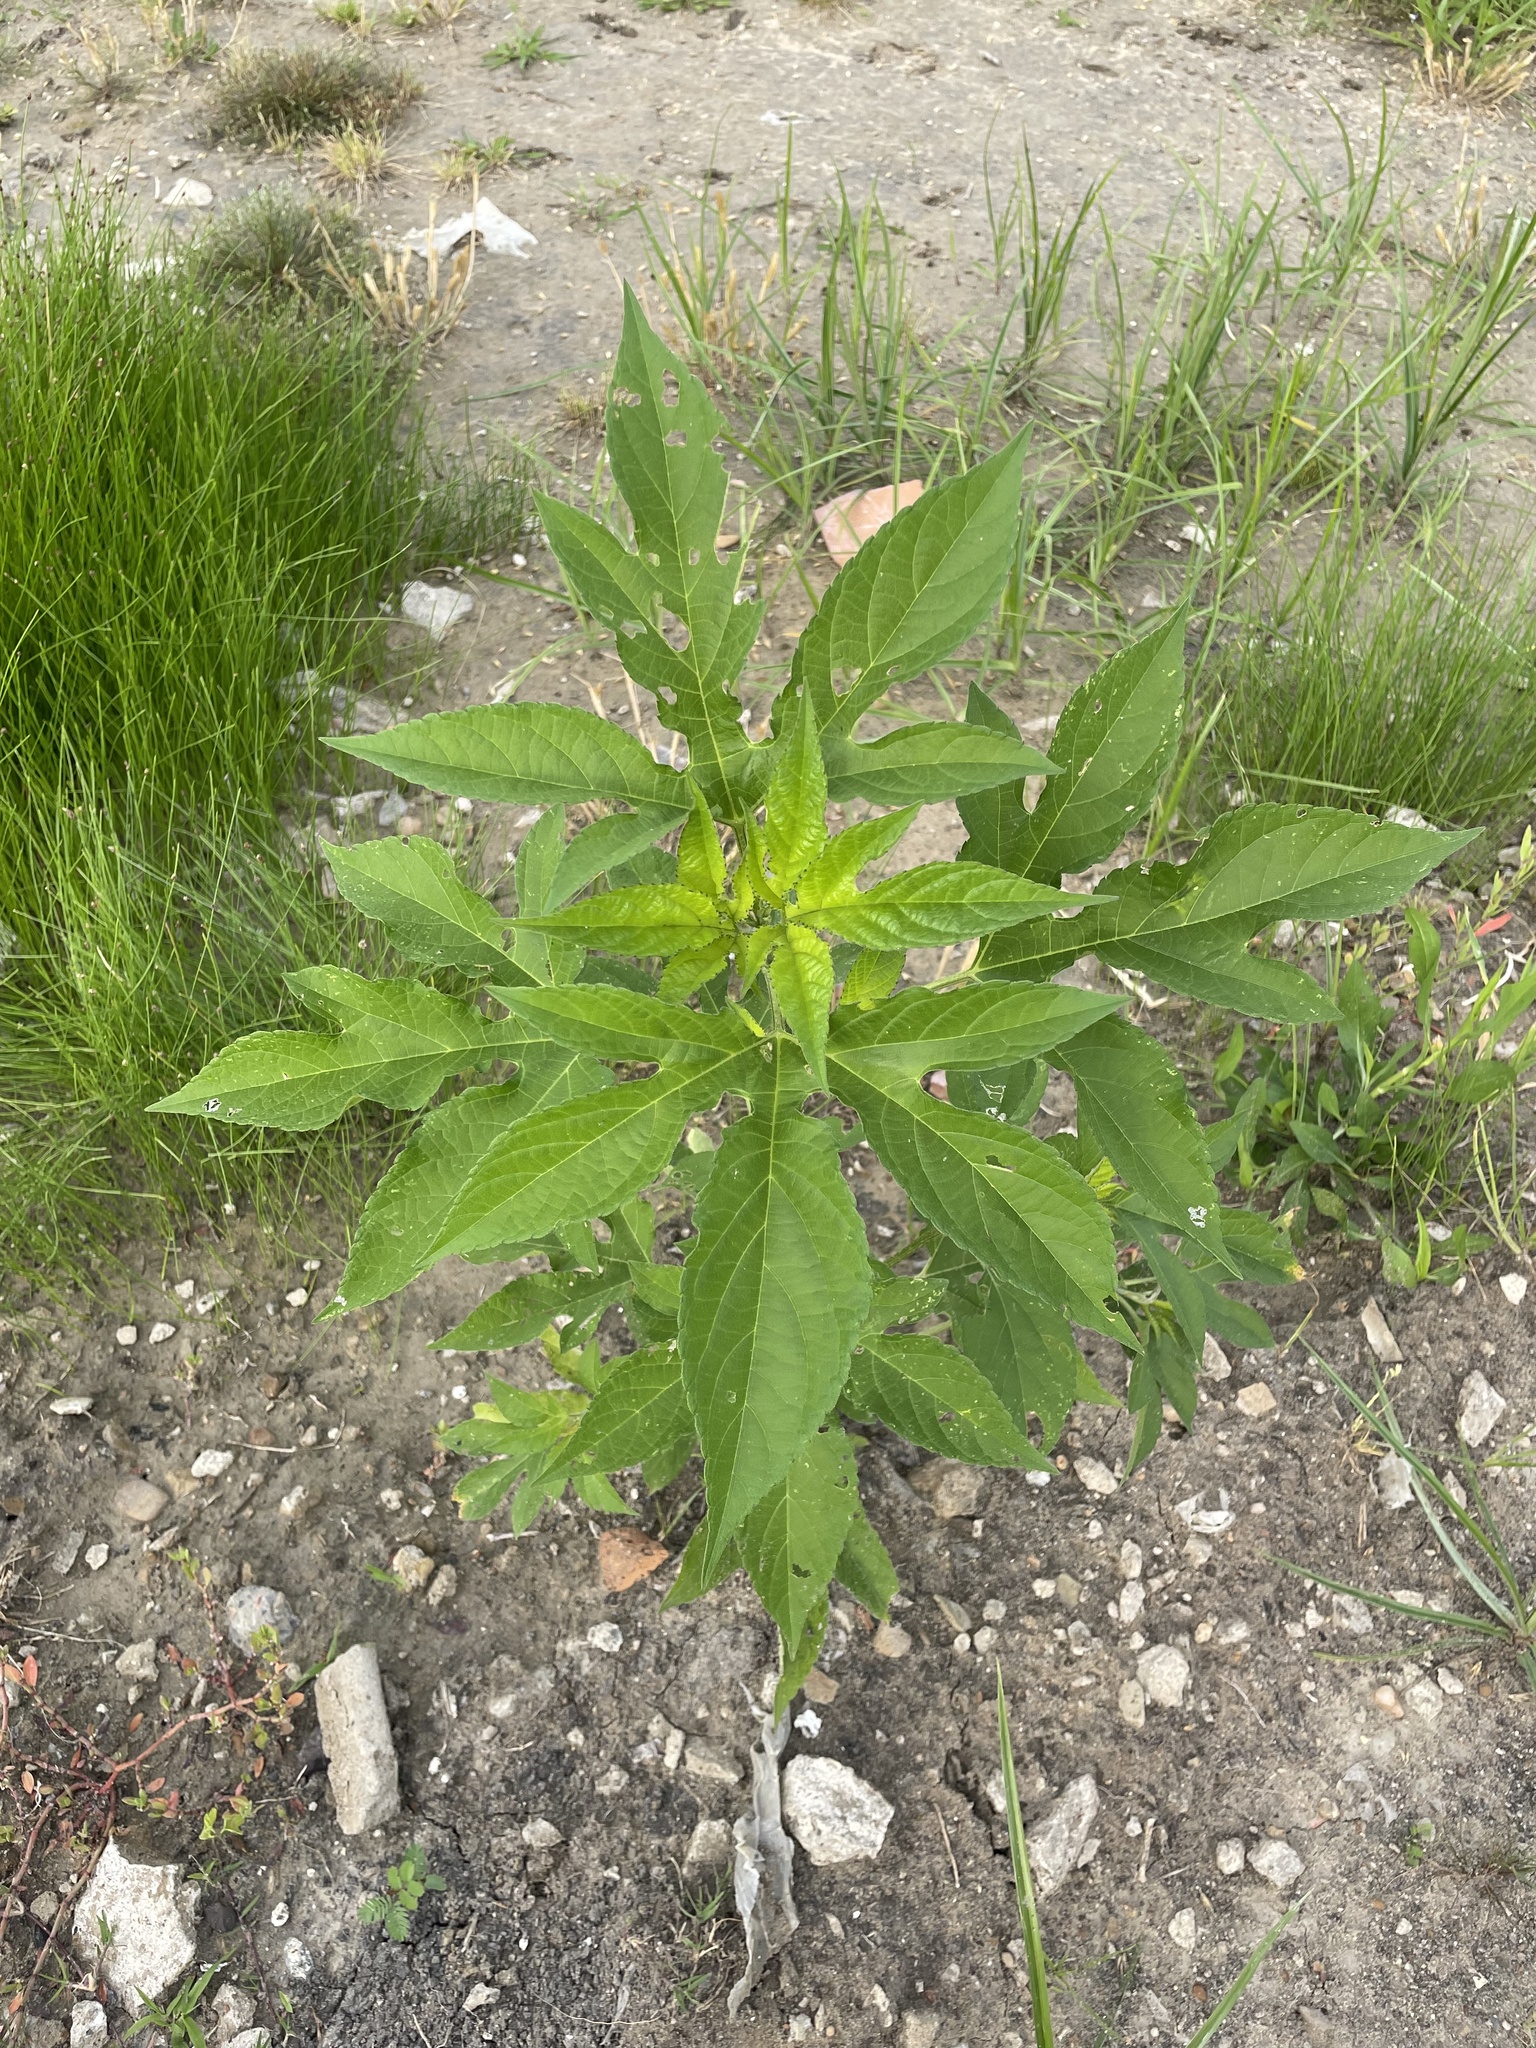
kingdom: Plantae
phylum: Tracheophyta
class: Magnoliopsida
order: Asterales
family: Asteraceae
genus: Ambrosia
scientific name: Ambrosia trifida
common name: Giant ragweed
